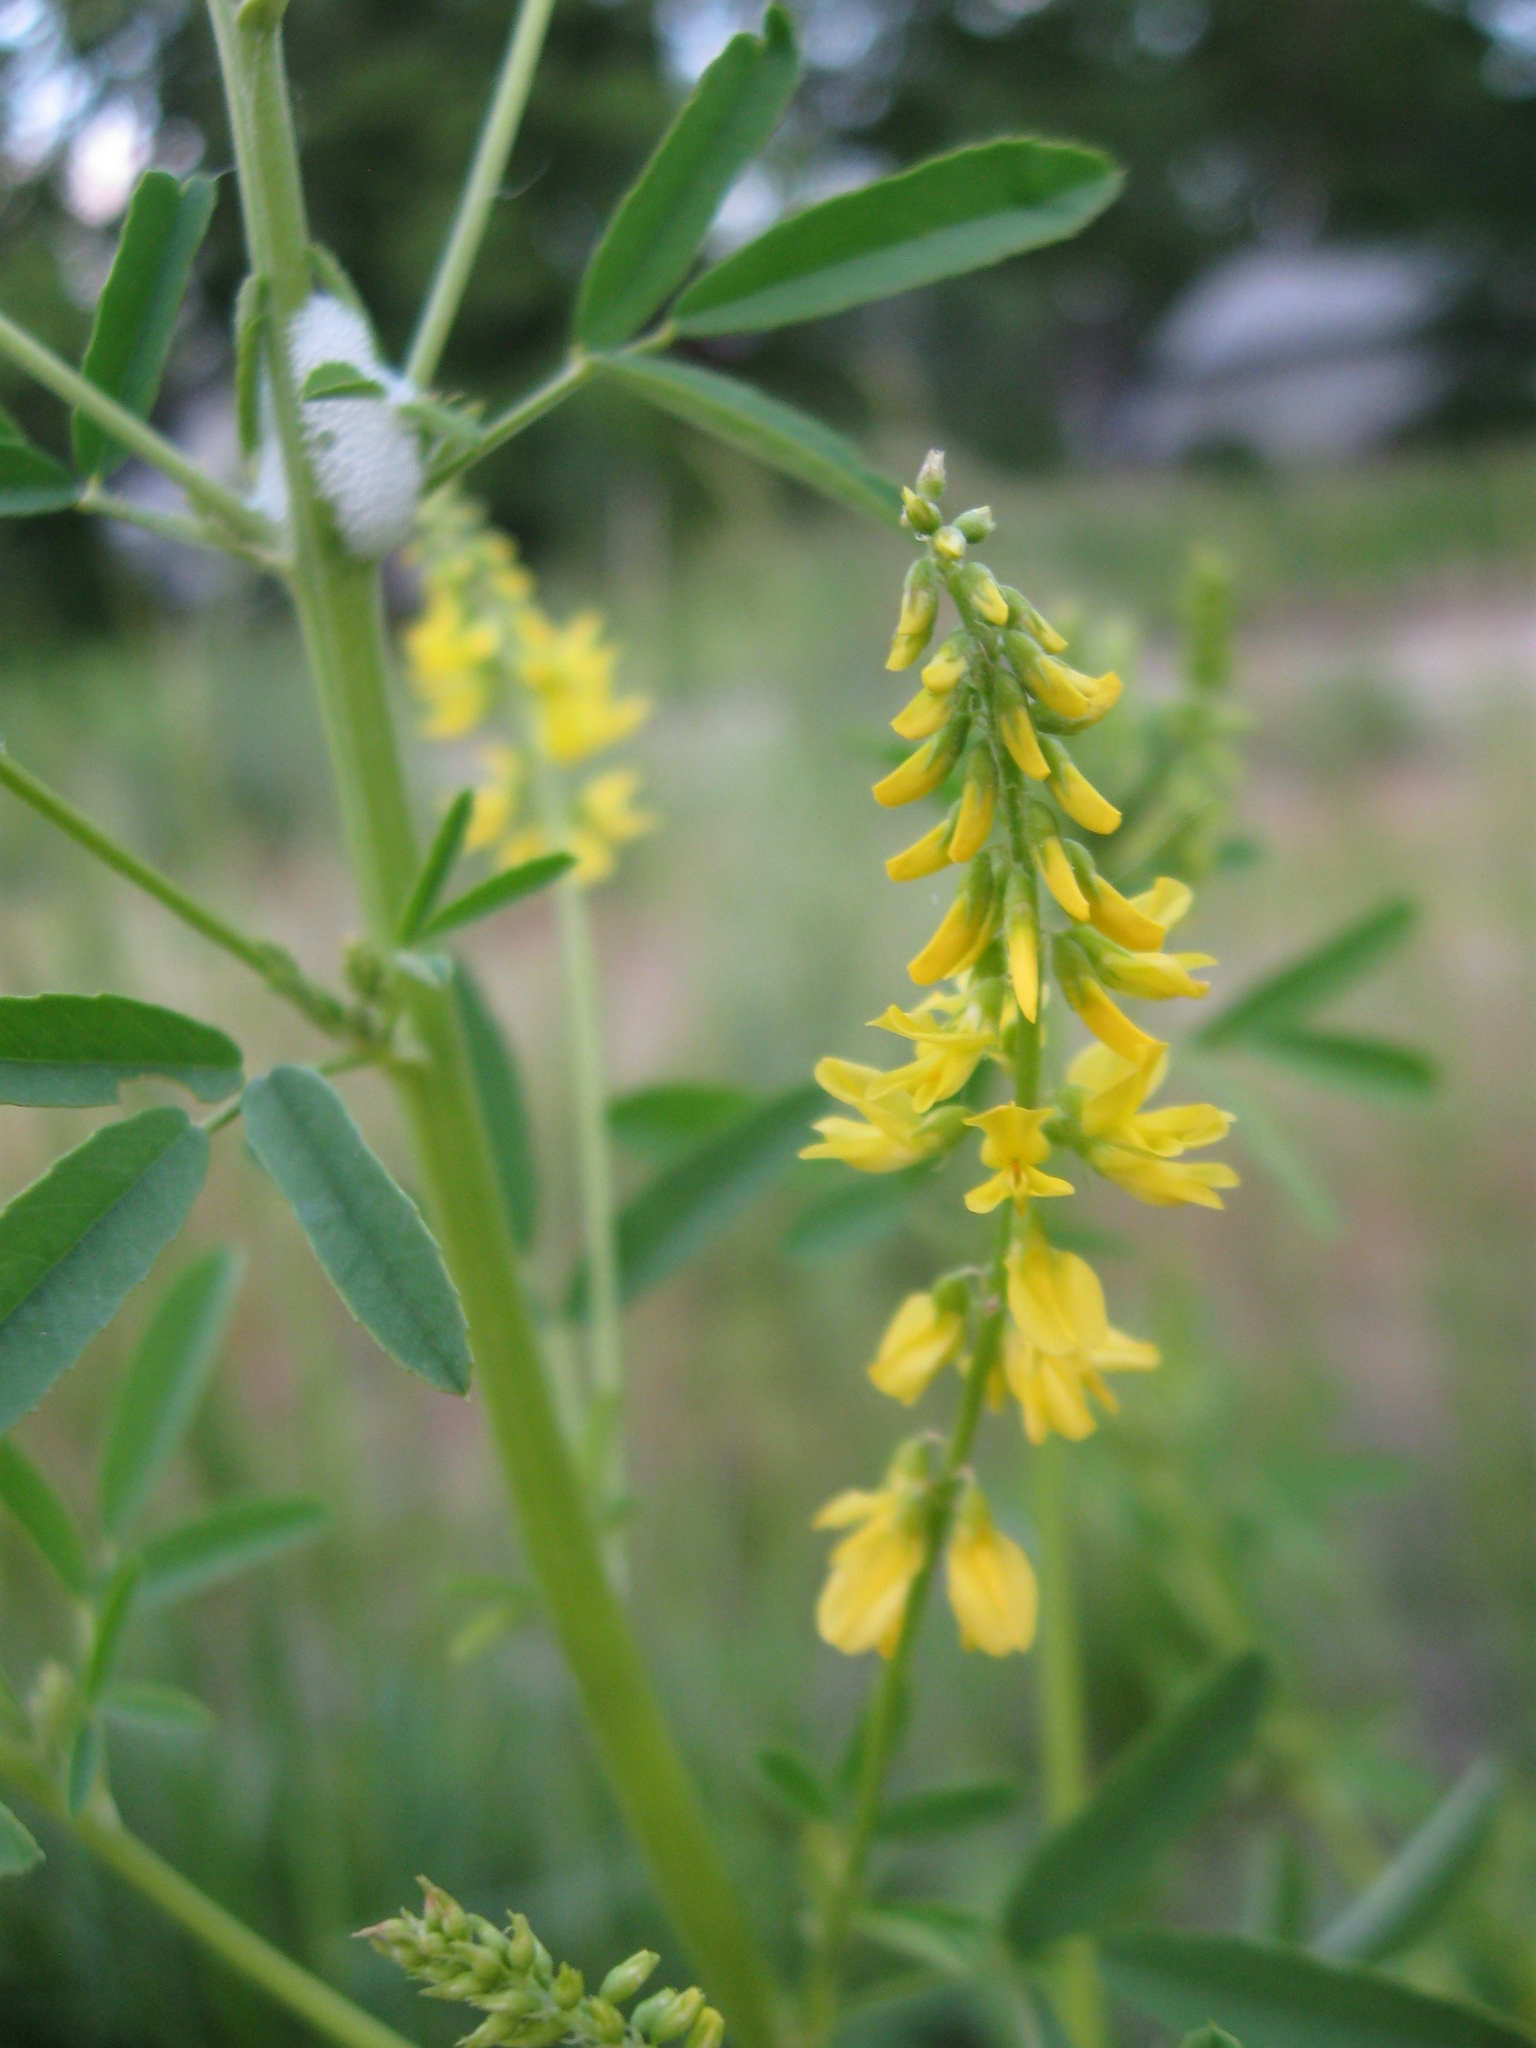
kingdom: Plantae
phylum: Tracheophyta
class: Magnoliopsida
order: Fabales
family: Fabaceae
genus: Melilotus
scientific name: Melilotus officinalis
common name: Sweetclover
